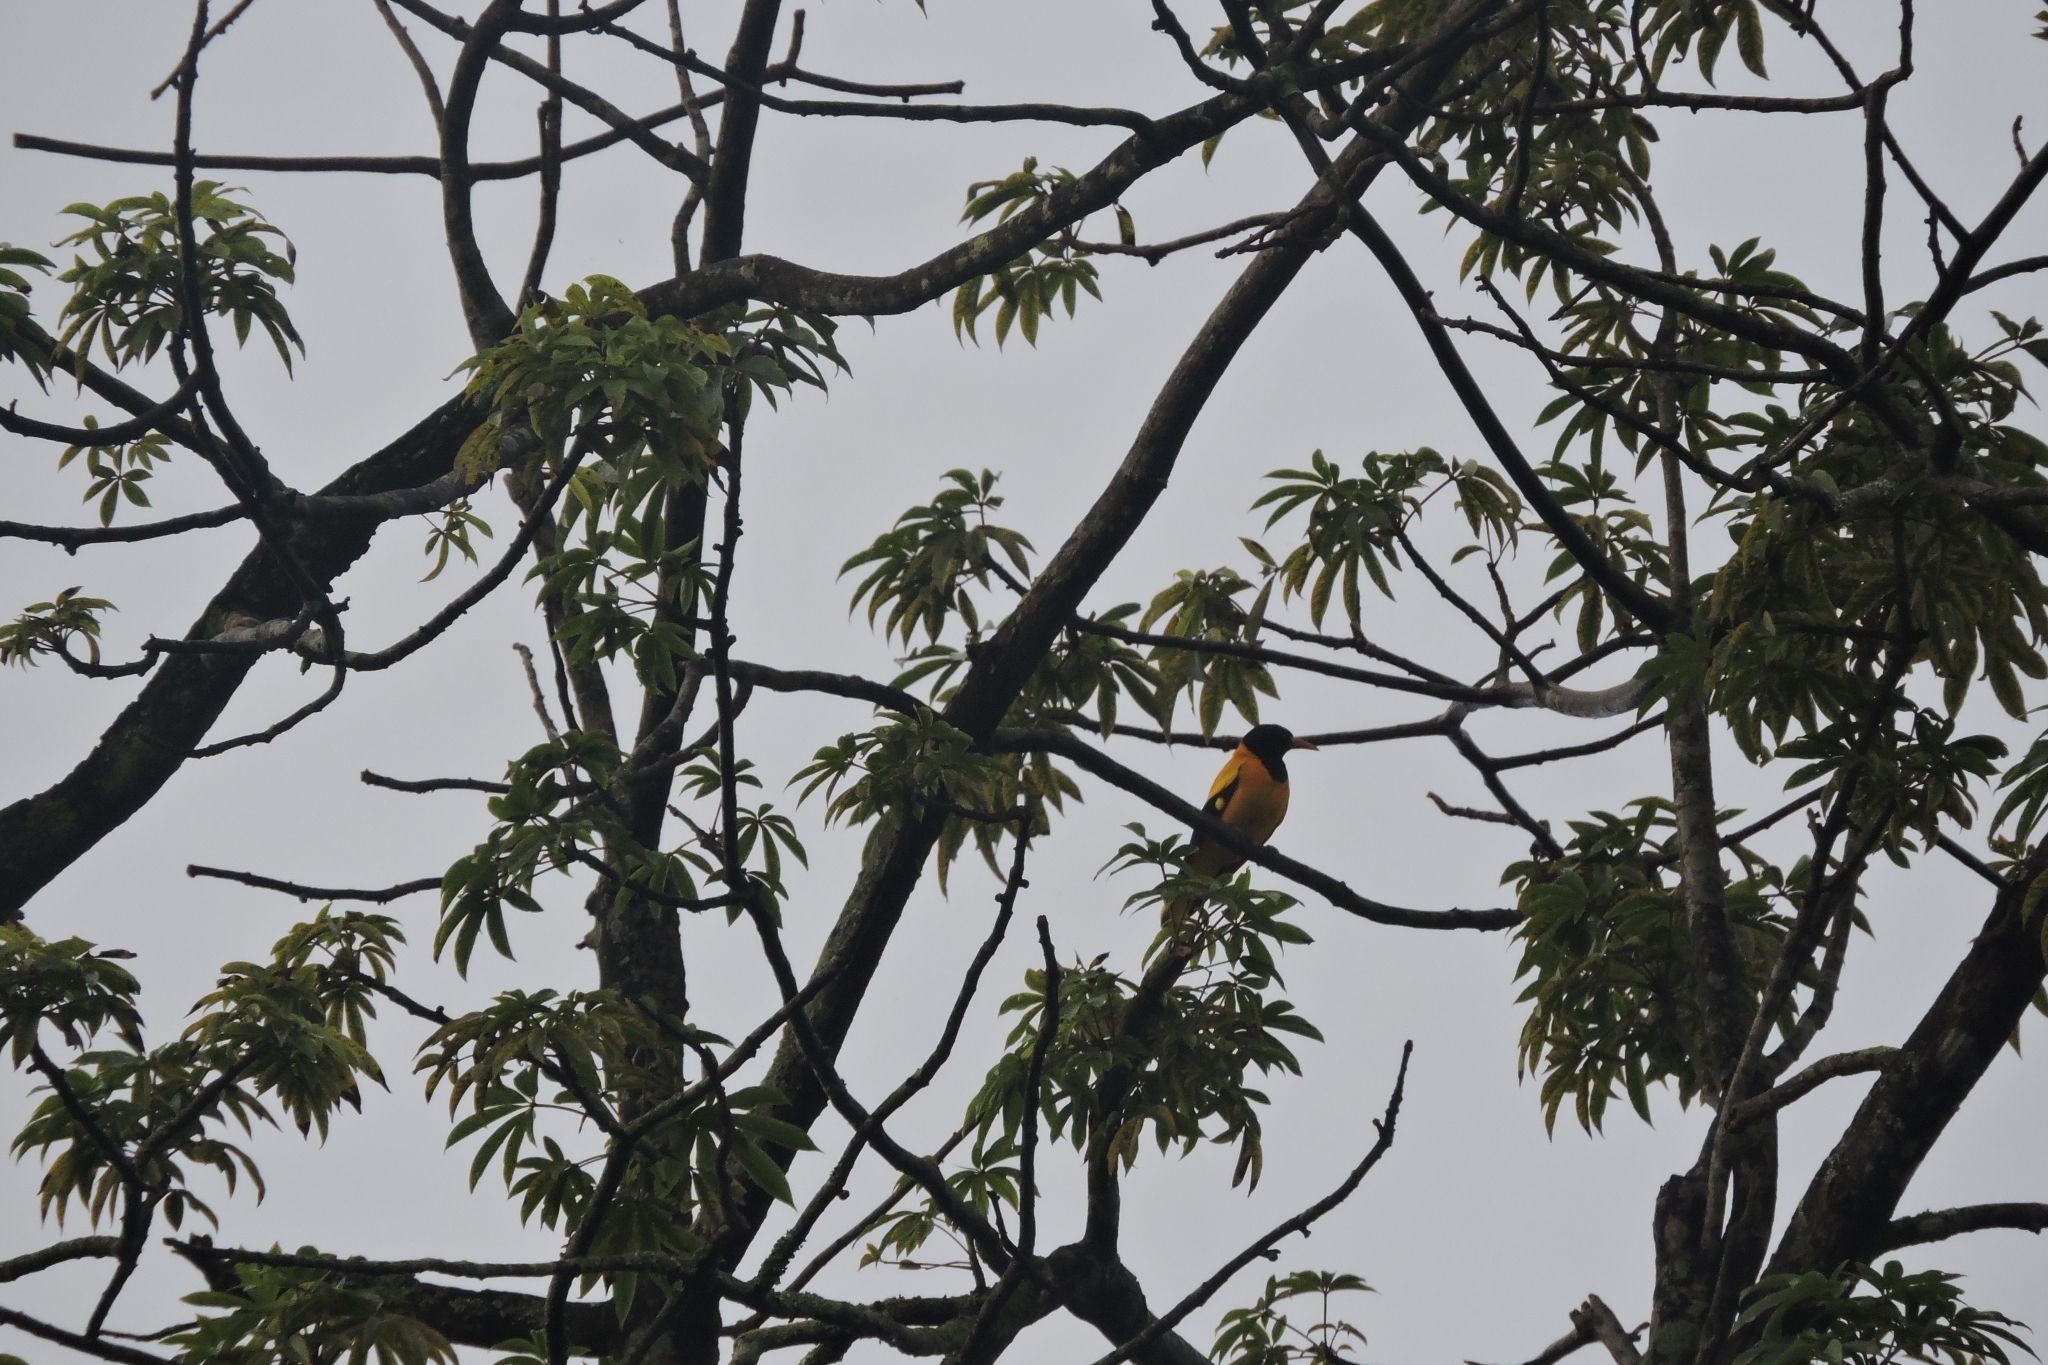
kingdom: Animalia
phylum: Chordata
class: Aves
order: Passeriformes
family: Oriolidae
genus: Oriolus
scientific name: Oriolus xanthornus
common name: Black-hooded oriole
